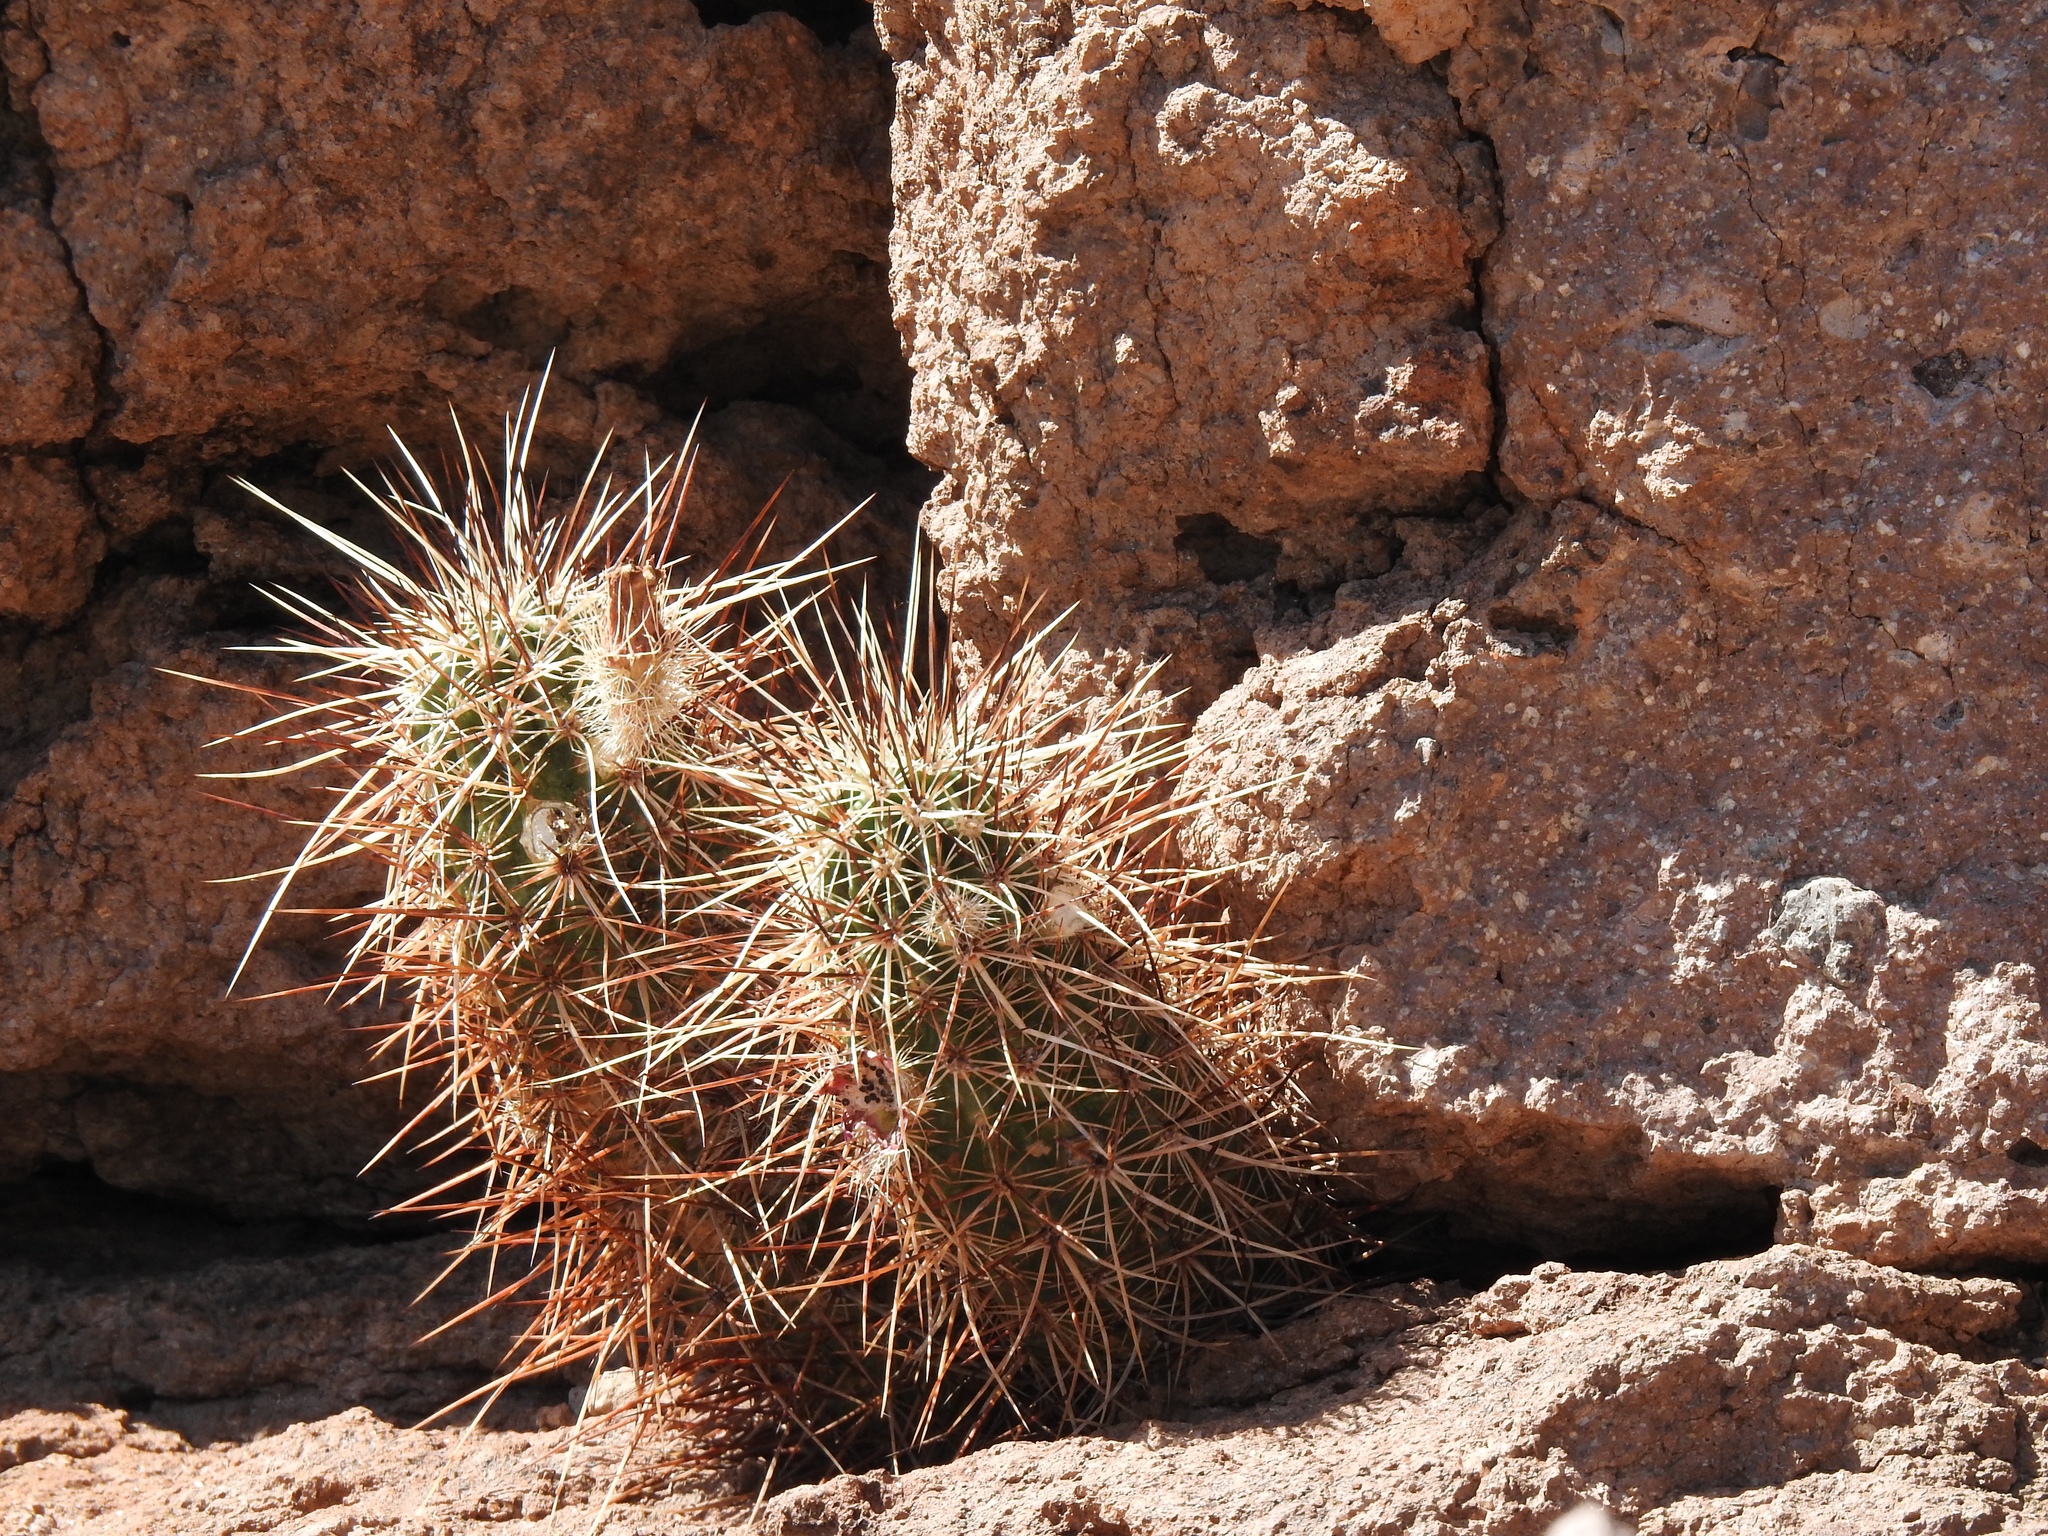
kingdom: Plantae
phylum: Tracheophyta
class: Magnoliopsida
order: Caryophyllales
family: Cactaceae
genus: Echinocereus
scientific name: Echinocereus engelmannii
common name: Engelmann's hedgehog cactus
